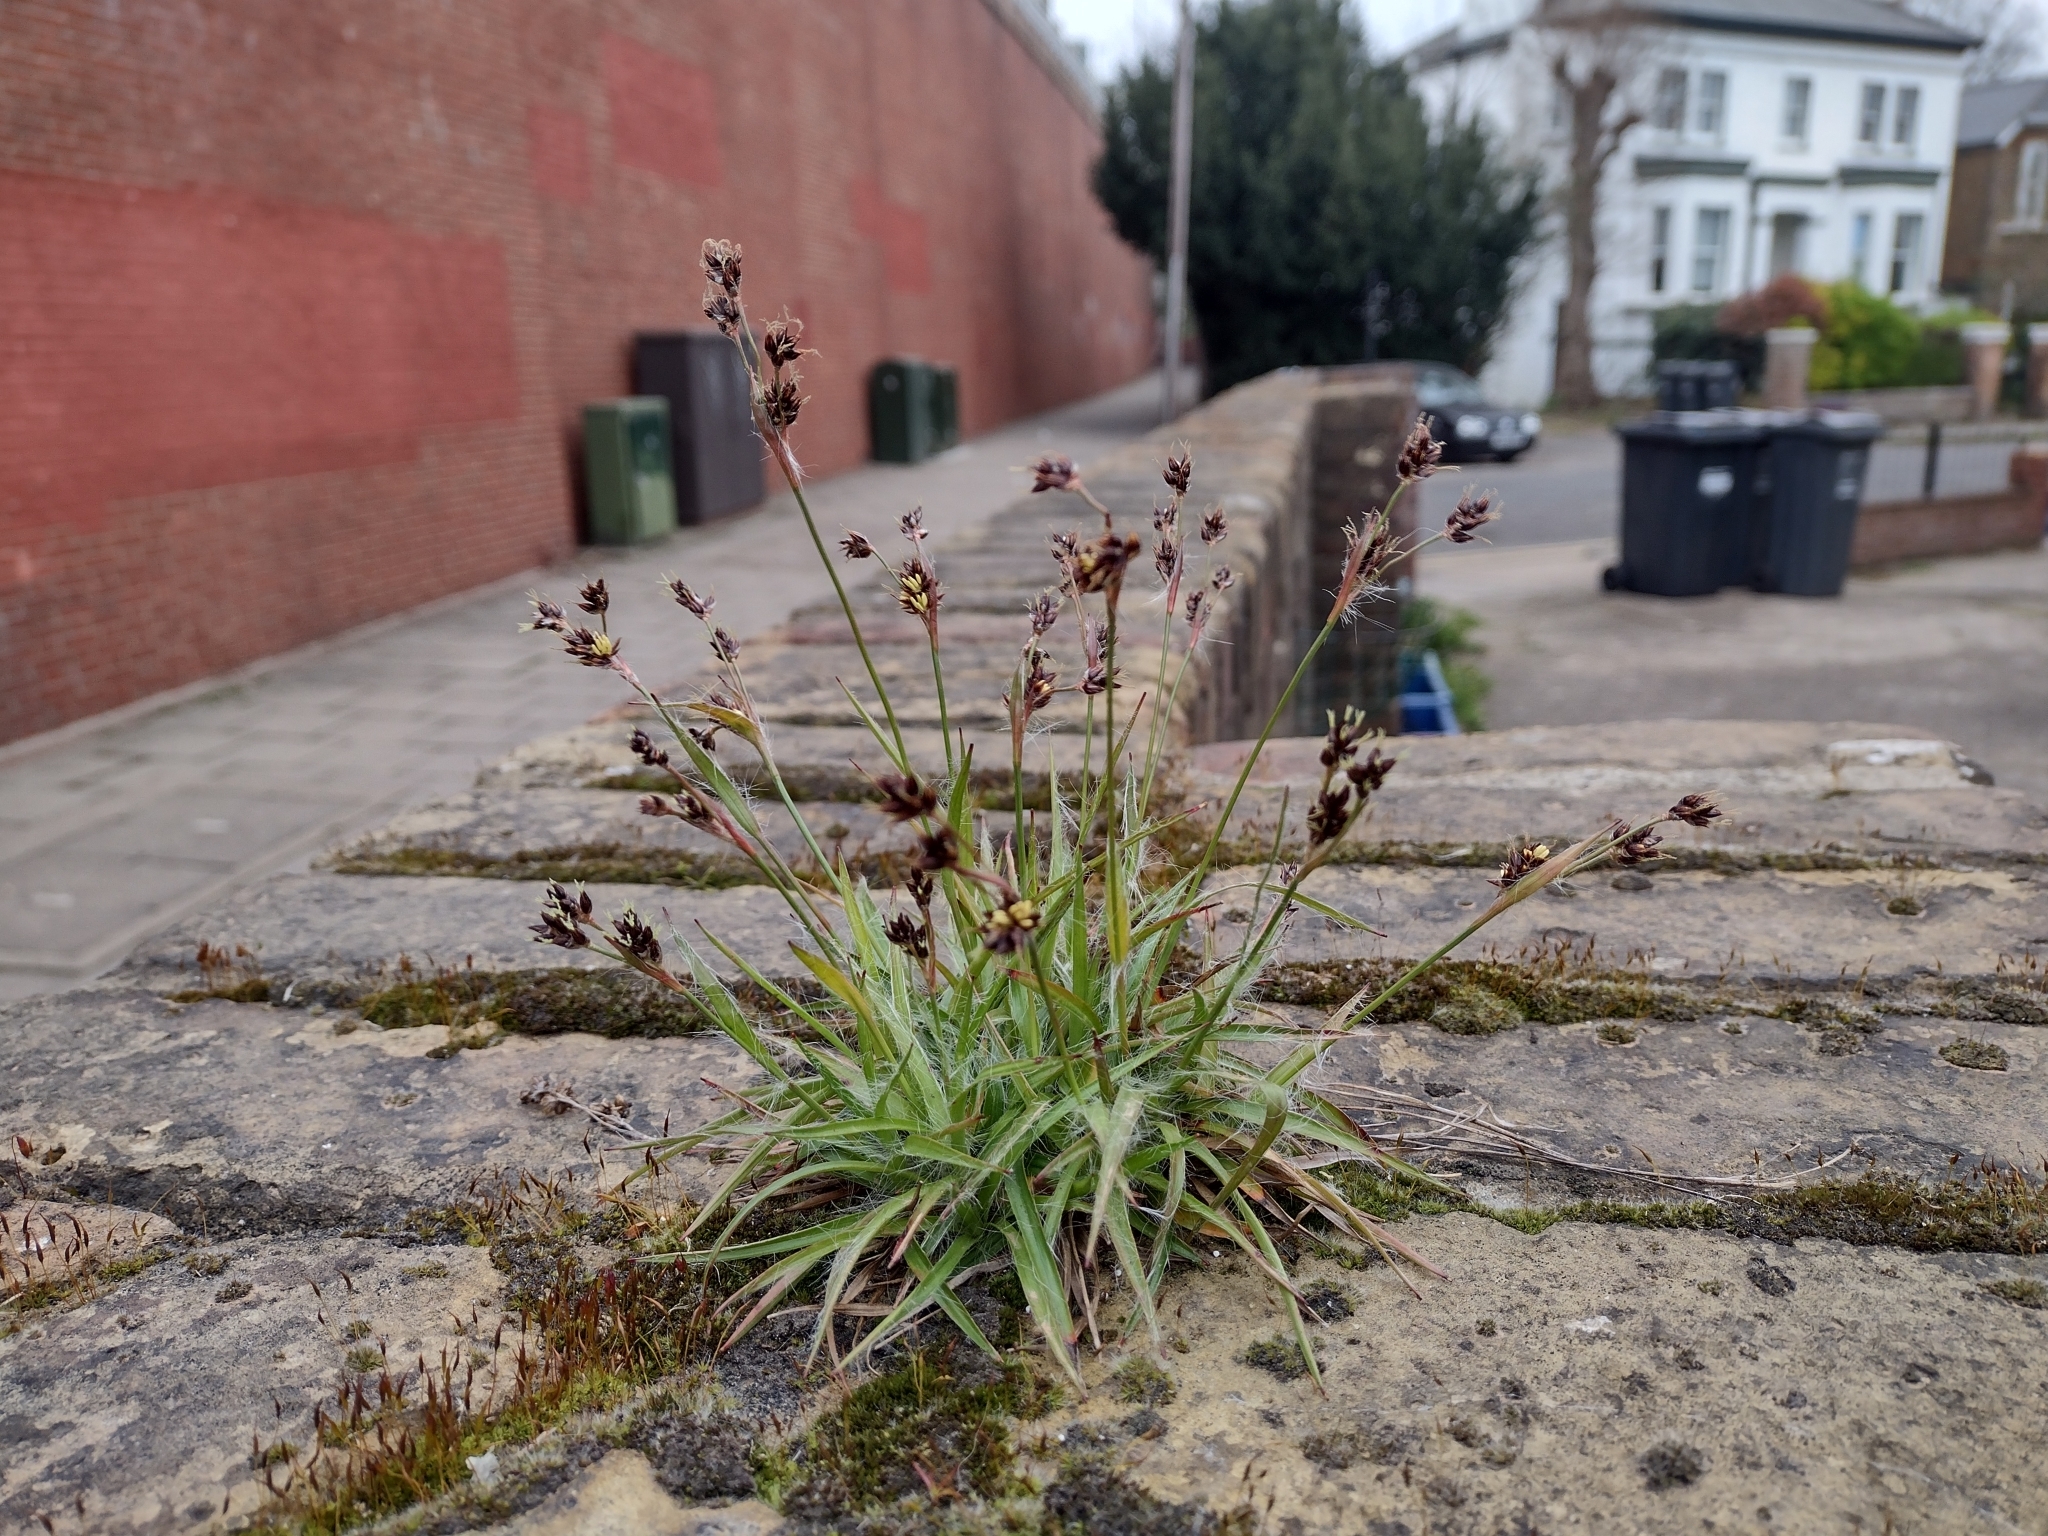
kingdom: Plantae
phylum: Tracheophyta
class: Liliopsida
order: Poales
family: Juncaceae
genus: Luzula
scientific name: Luzula campestris
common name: Field wood-rush
